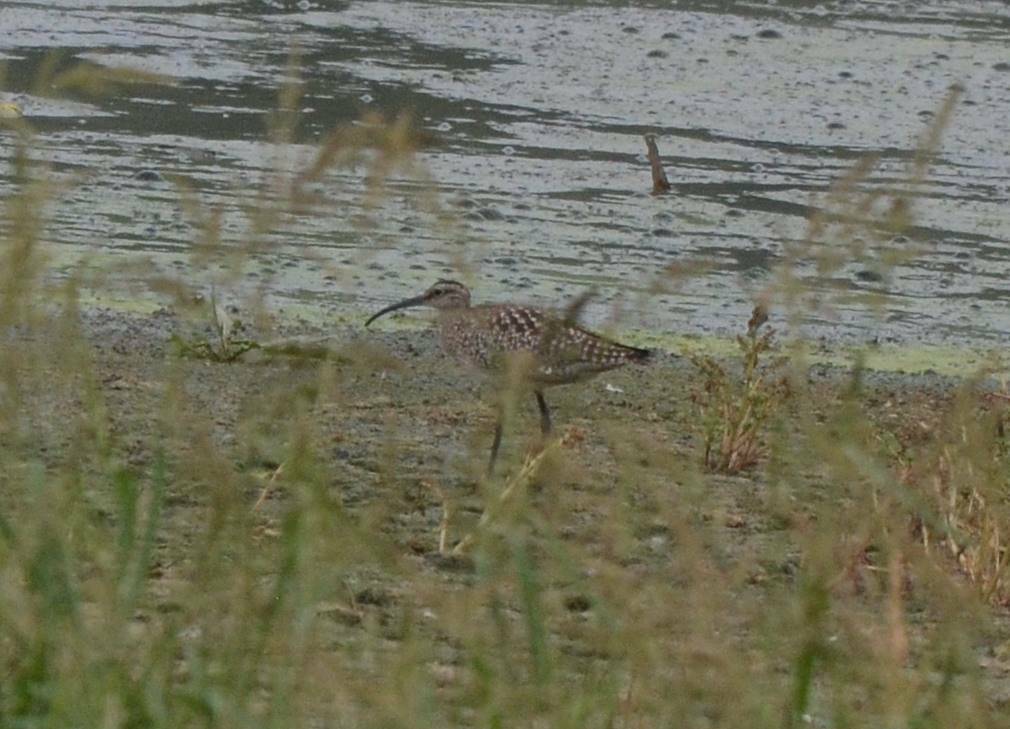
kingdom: Animalia
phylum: Chordata
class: Aves
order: Charadriiformes
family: Scolopacidae
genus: Numenius
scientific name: Numenius phaeopus
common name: Whimbrel
